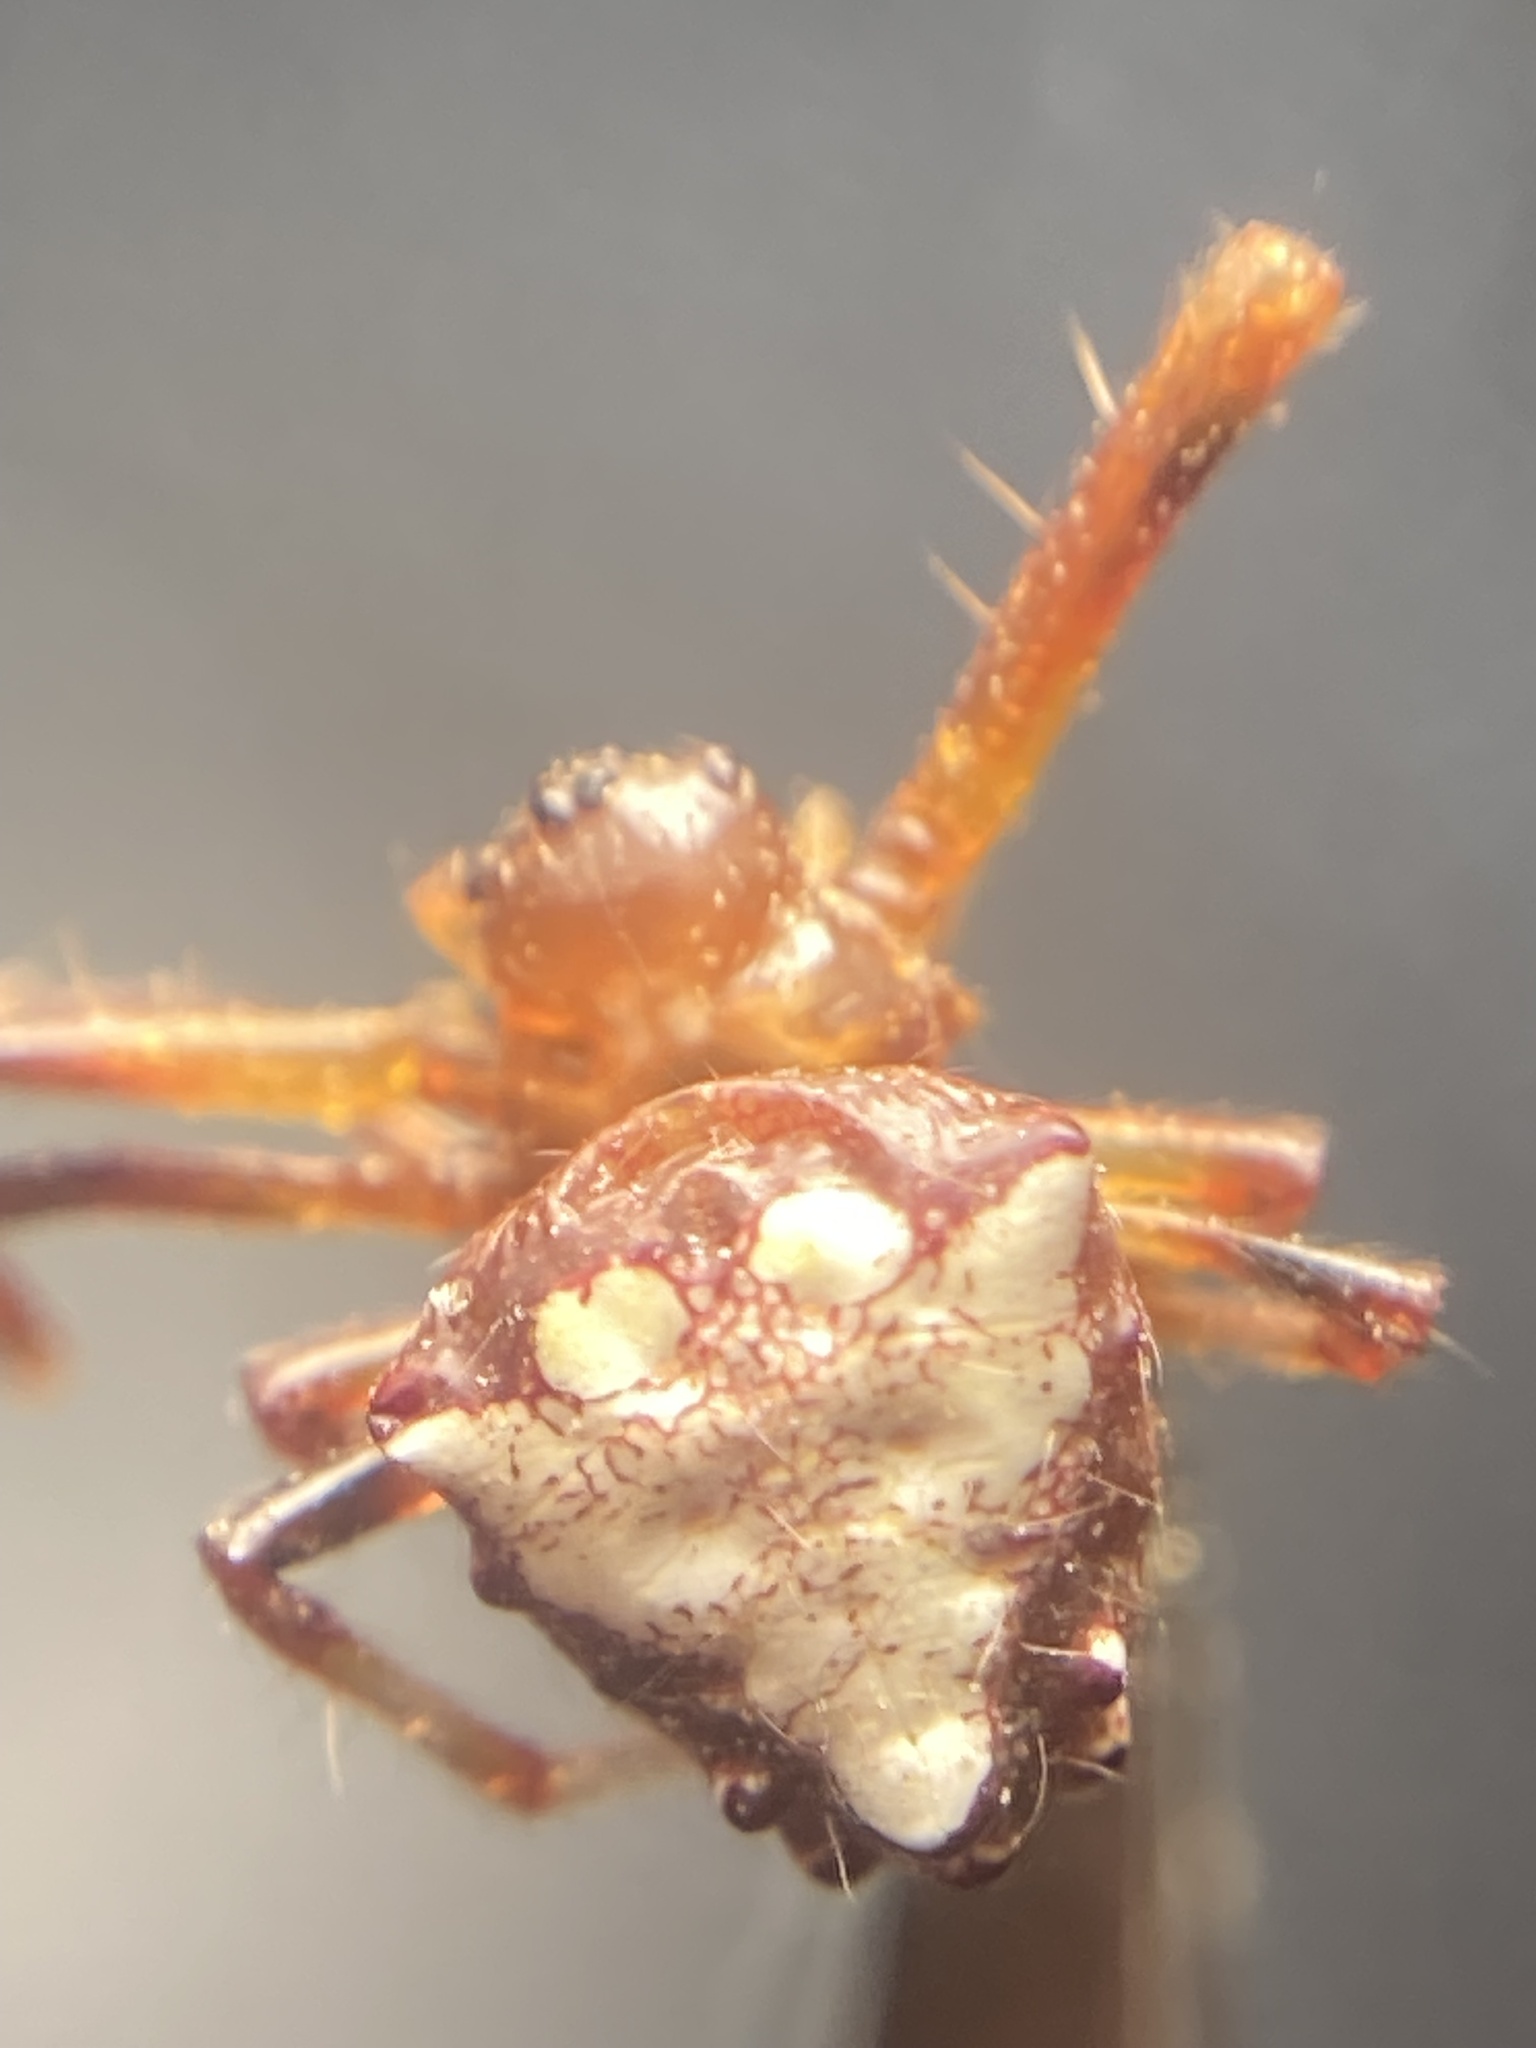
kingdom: Animalia
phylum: Arthropoda
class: Arachnida
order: Araneae
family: Araneidae
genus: Verrucosa
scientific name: Verrucosa arenata
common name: Orb weavers
